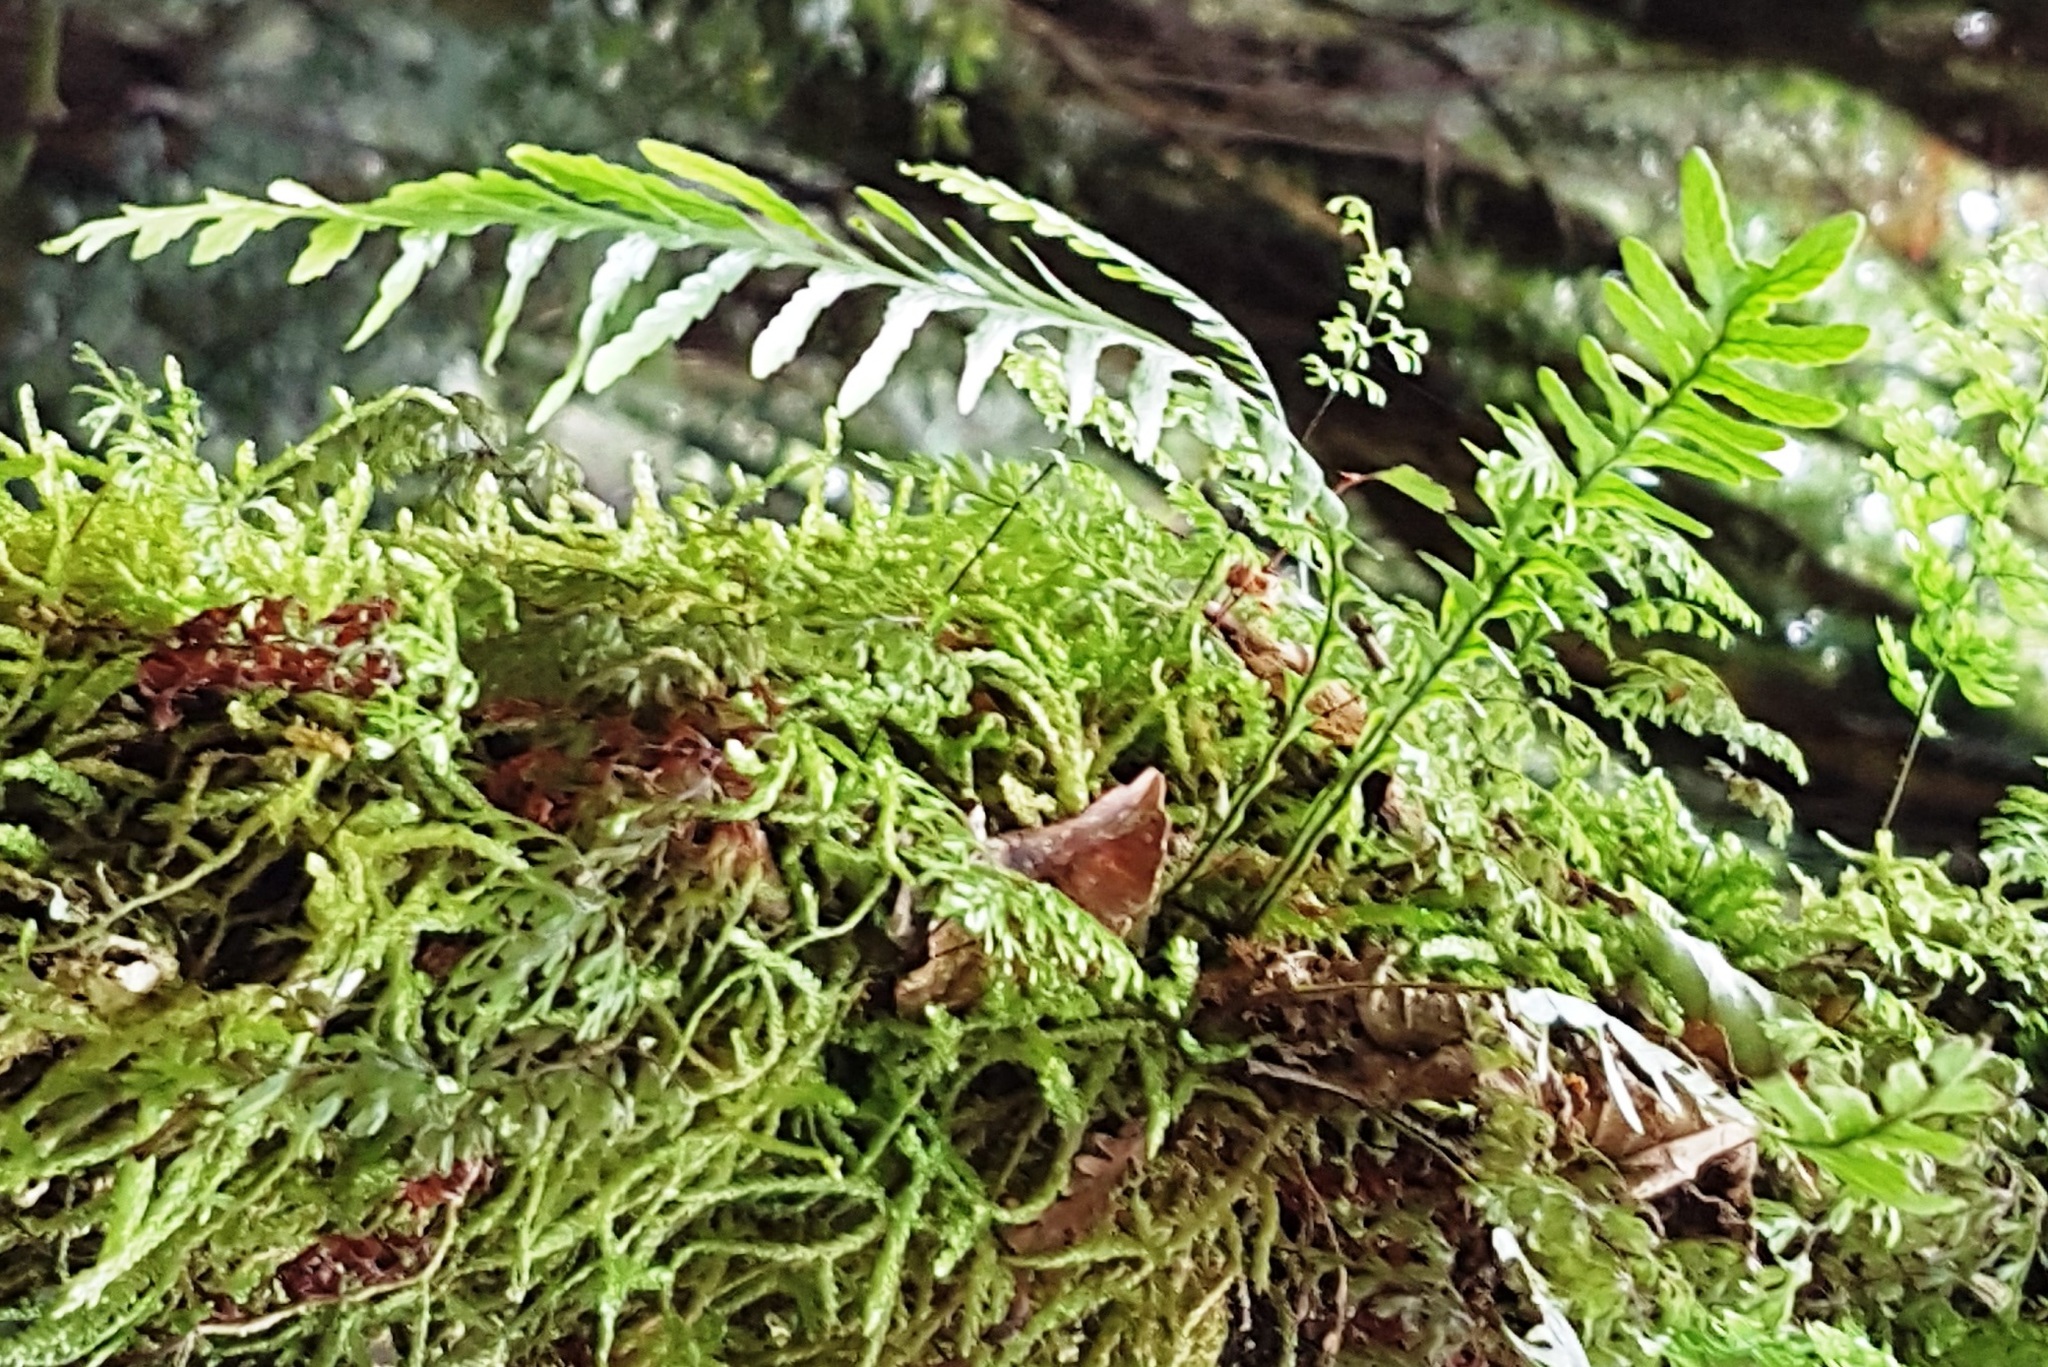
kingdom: Plantae
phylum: Tracheophyta
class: Polypodiopsida
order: Polypodiales
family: Polypodiaceae
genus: Notogrammitis
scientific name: Notogrammitis heterophylla
